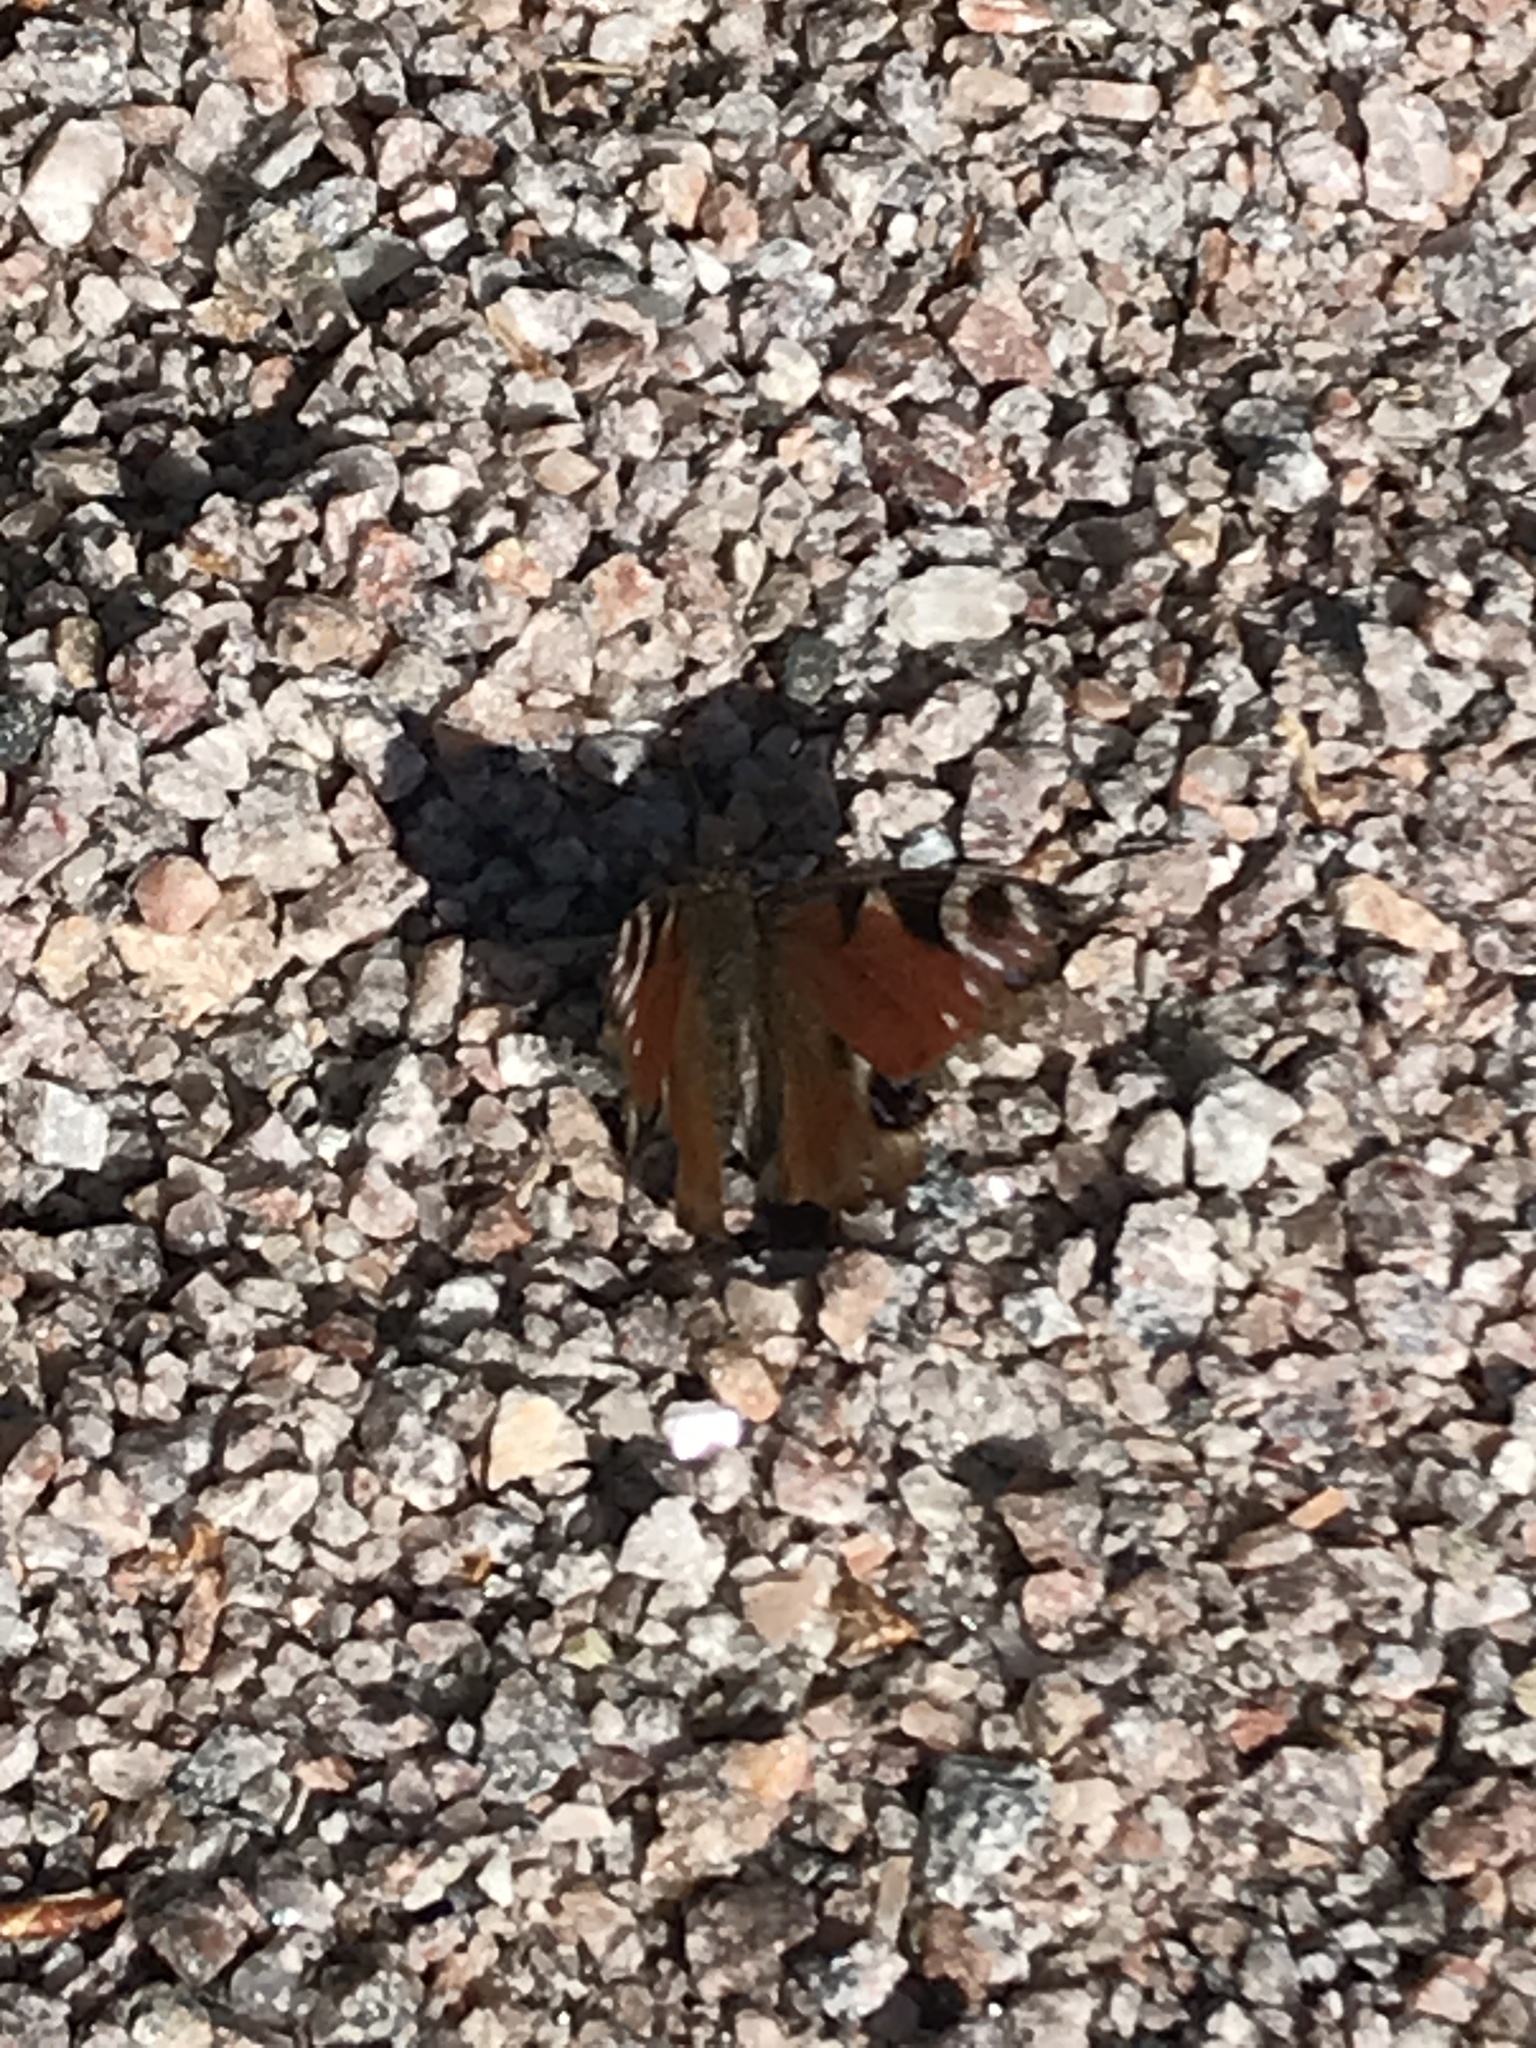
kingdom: Animalia
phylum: Arthropoda
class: Insecta
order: Lepidoptera
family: Nymphalidae
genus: Aglais
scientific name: Aglais io
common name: Peacock
